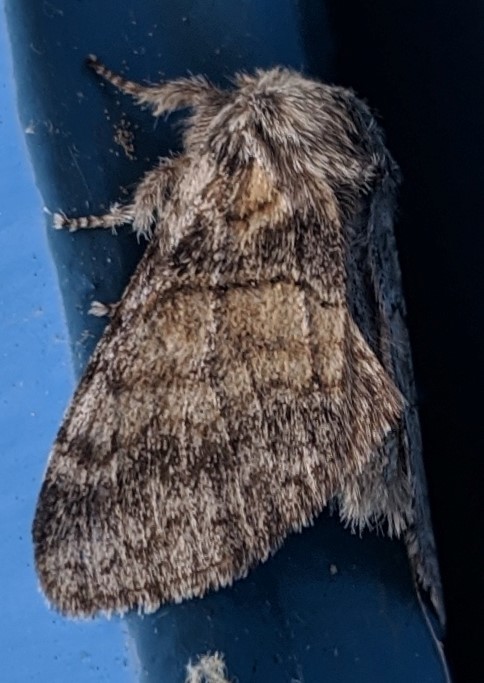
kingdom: Animalia
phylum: Arthropoda
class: Insecta
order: Lepidoptera
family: Notodontidae
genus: Gluphisia
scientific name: Gluphisia septentrionis
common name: Common gluphisia
